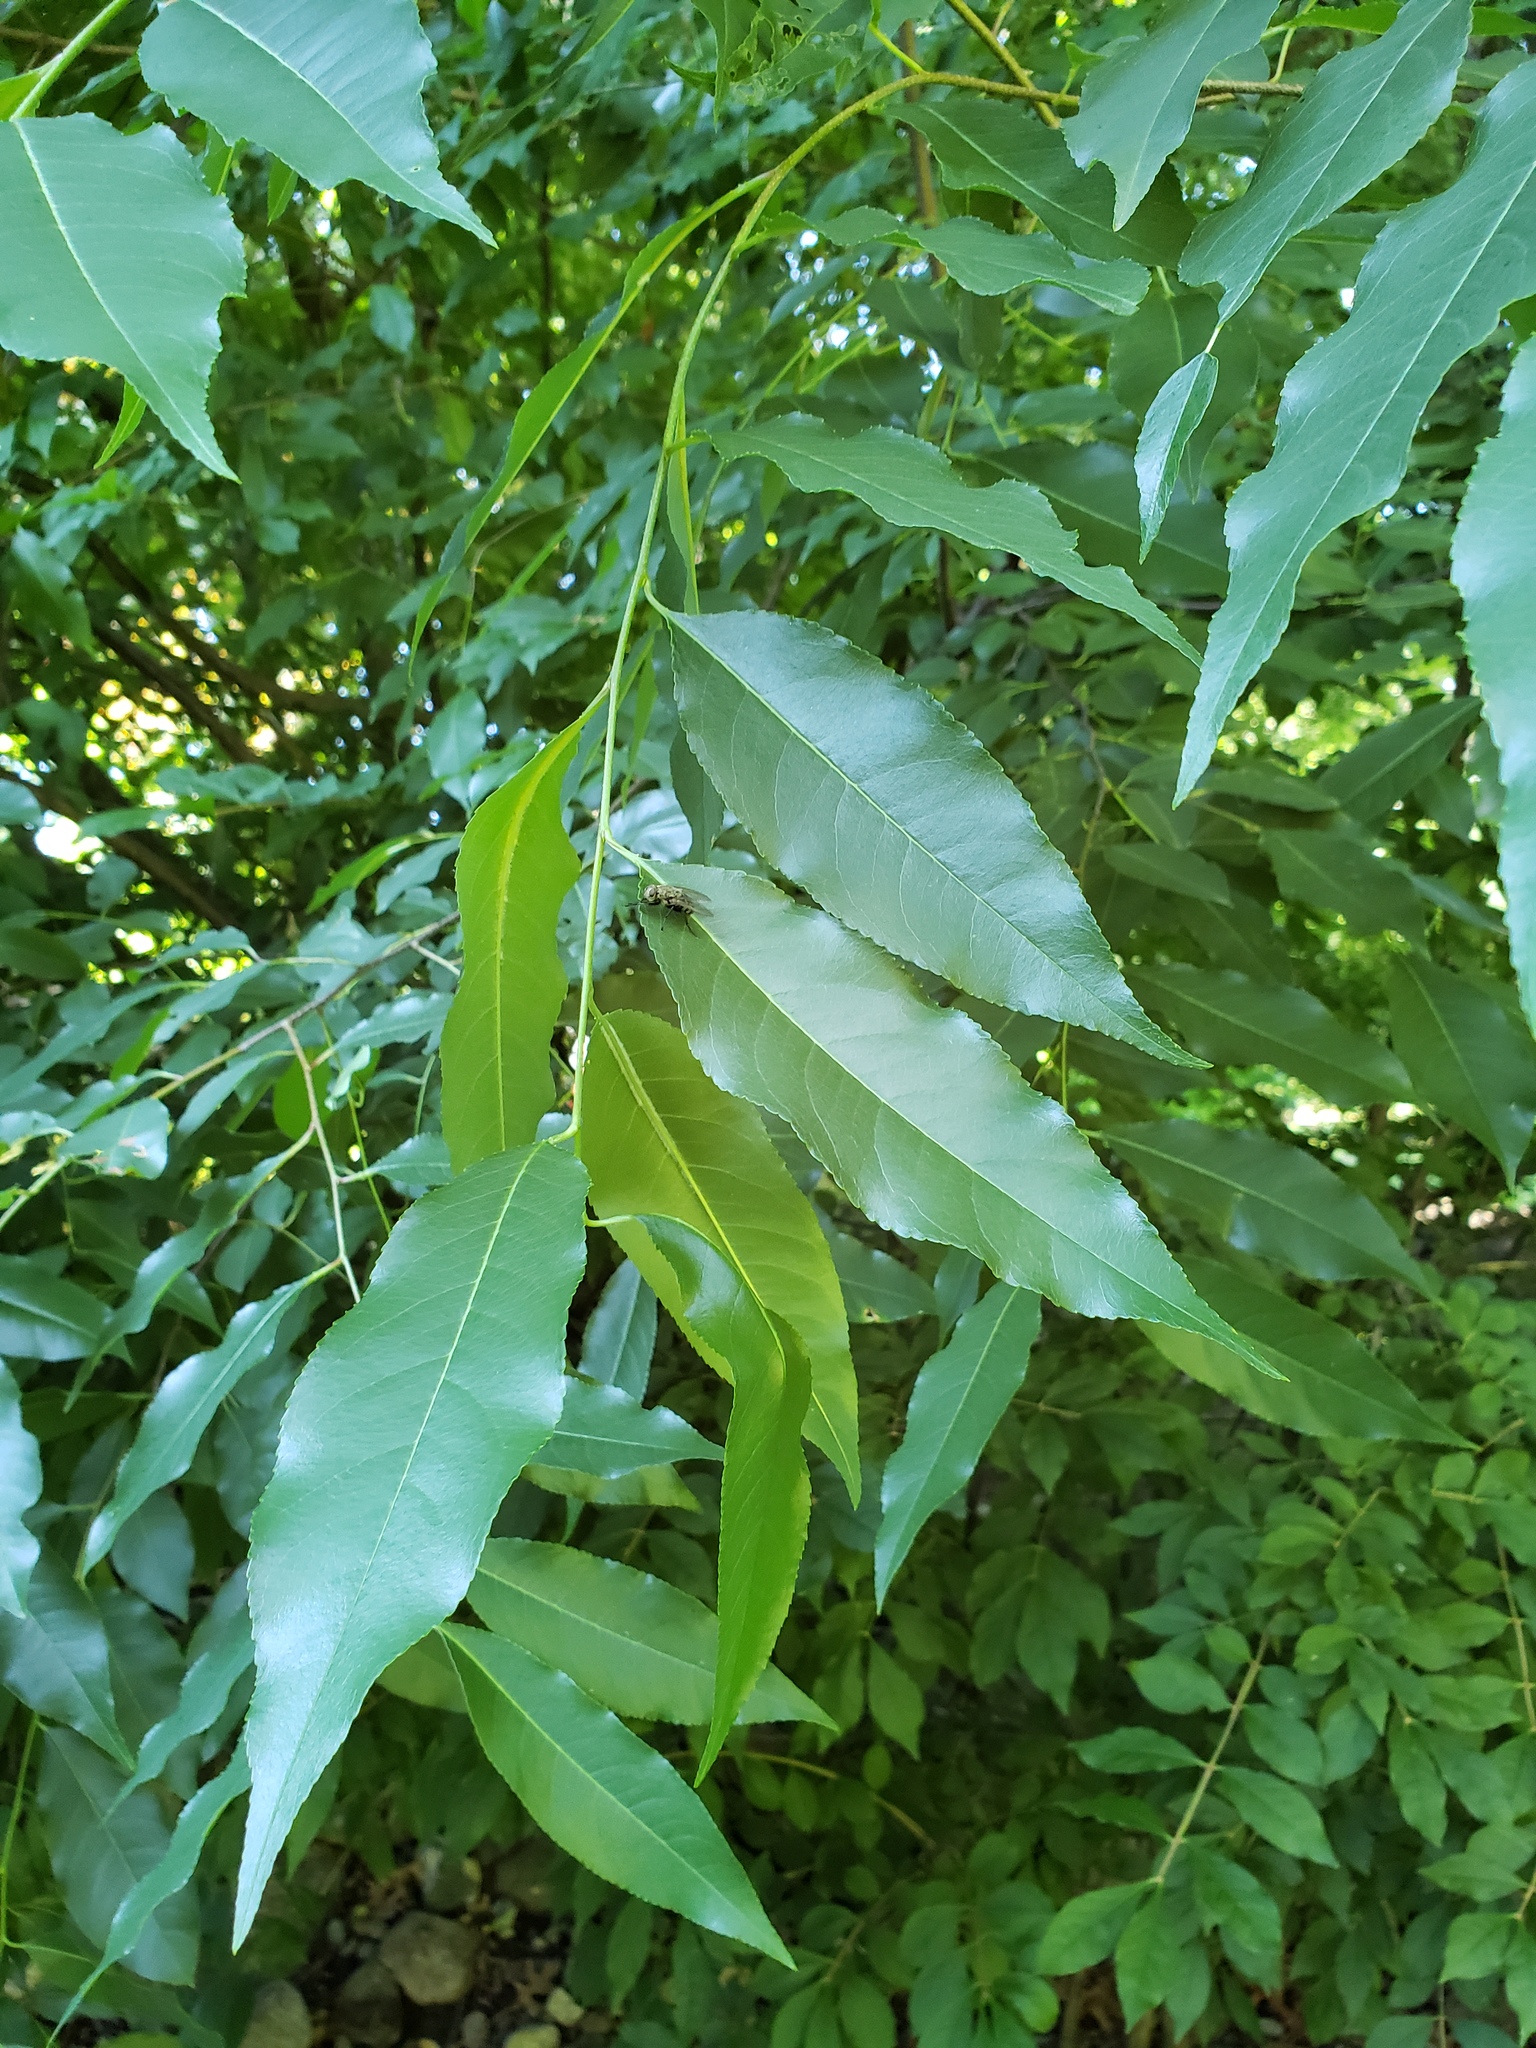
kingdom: Plantae
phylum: Tracheophyta
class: Magnoliopsida
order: Rosales
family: Rosaceae
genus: Prunus
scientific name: Prunus serotina
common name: Black cherry
